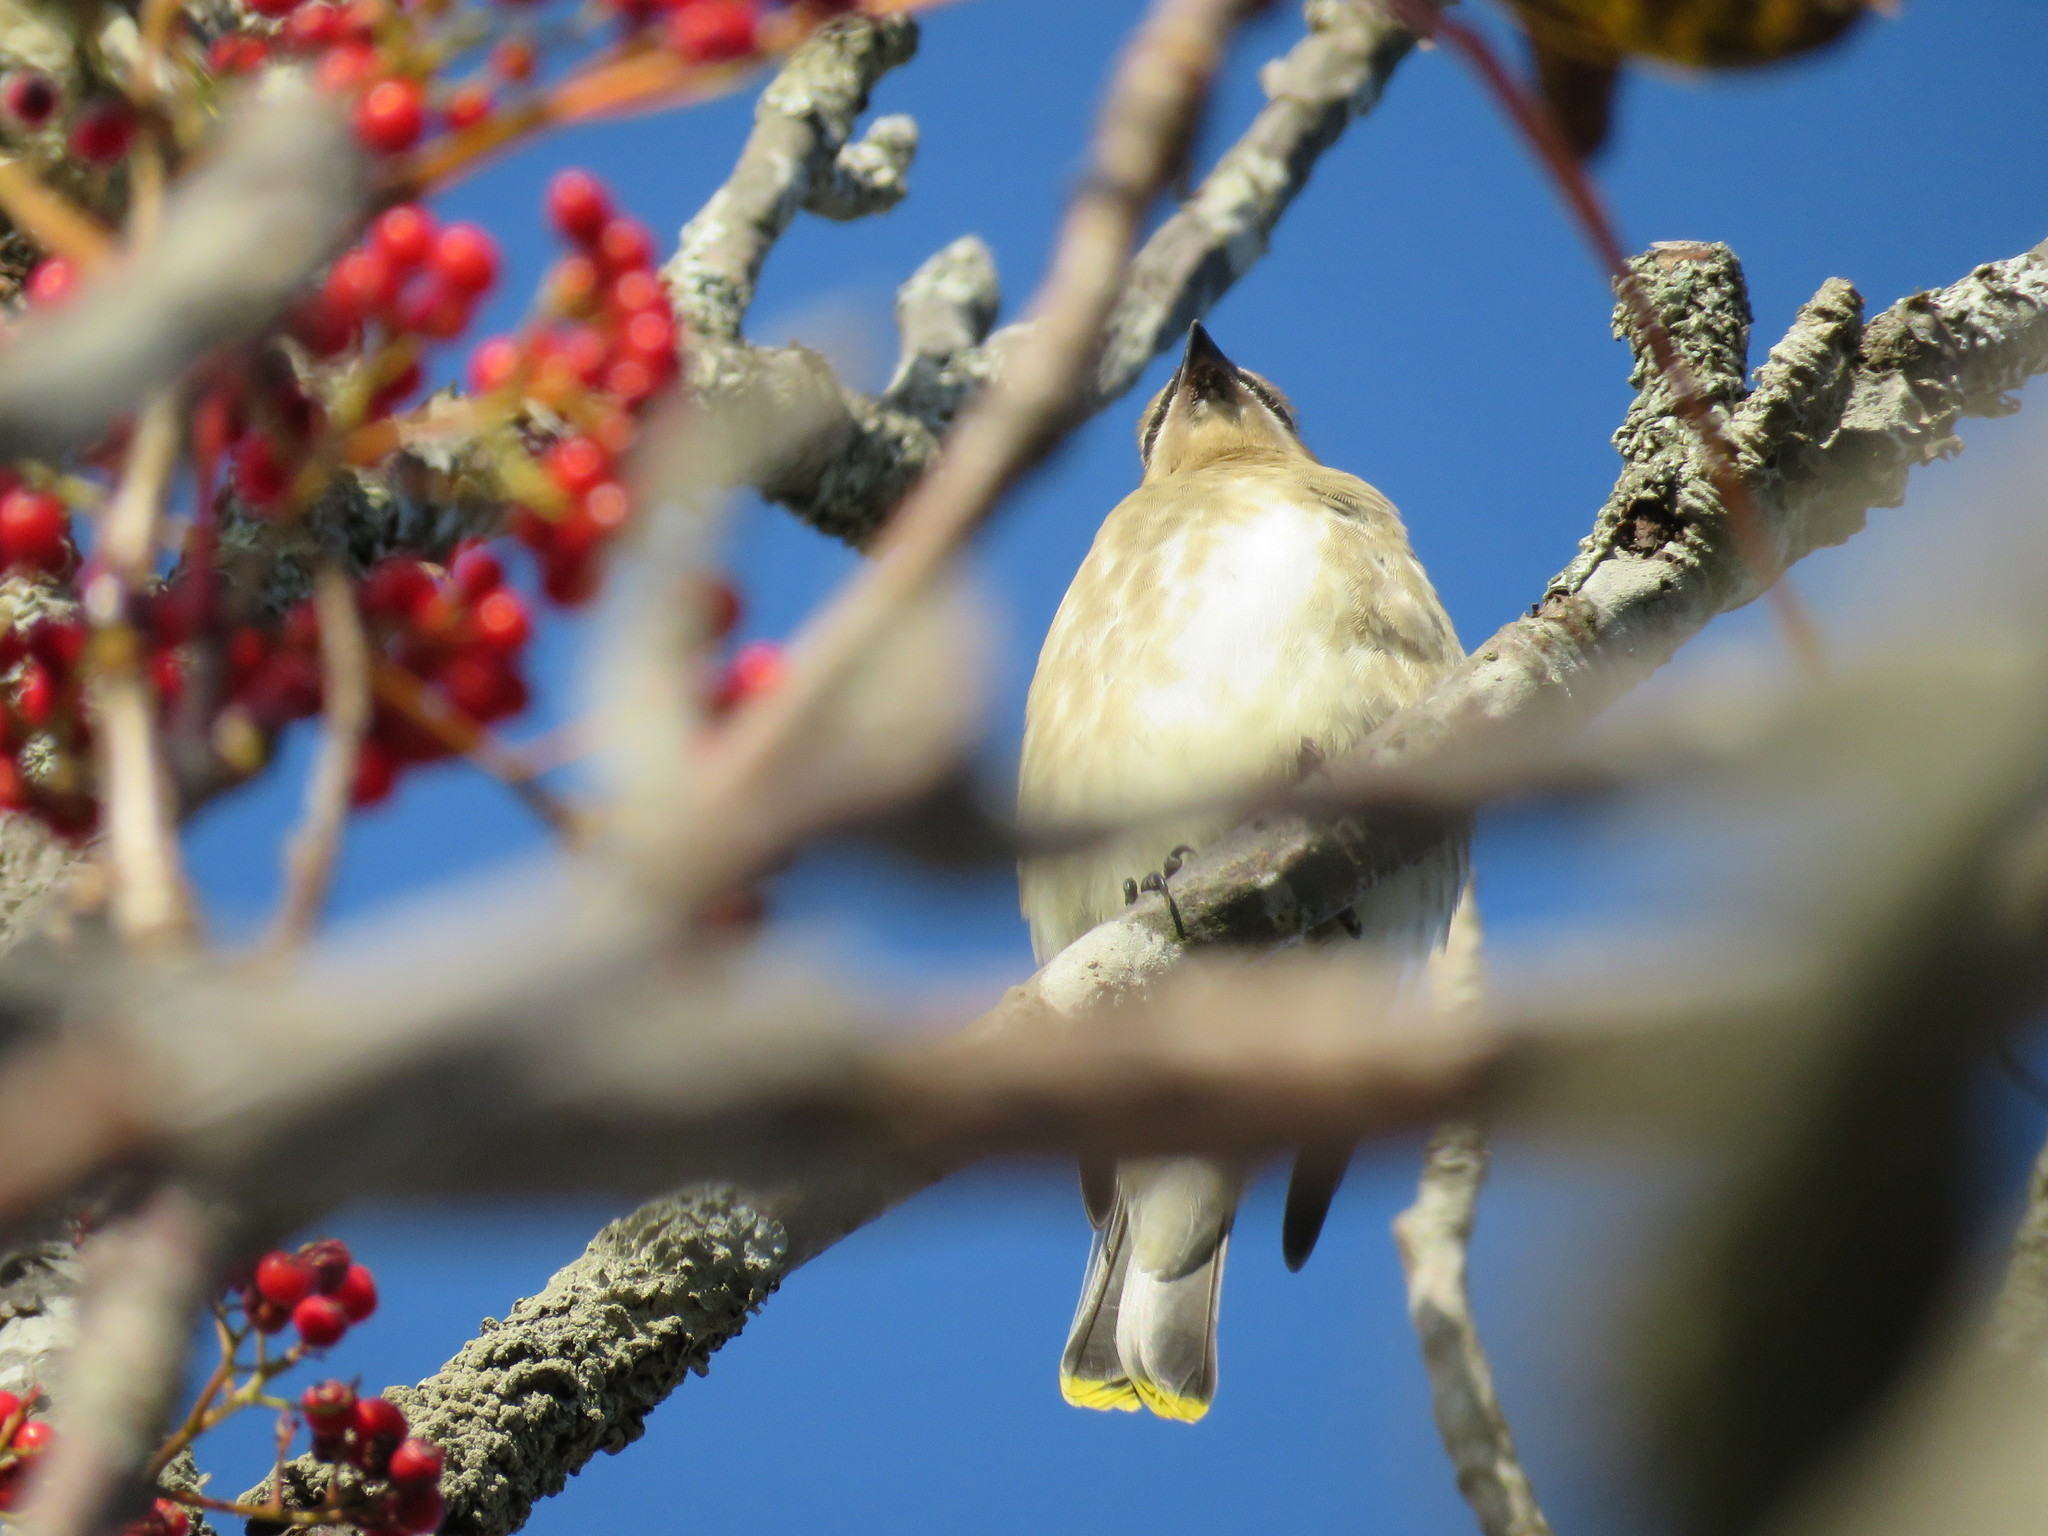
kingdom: Animalia
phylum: Chordata
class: Aves
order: Passeriformes
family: Bombycillidae
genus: Bombycilla
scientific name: Bombycilla cedrorum
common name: Cedar waxwing
